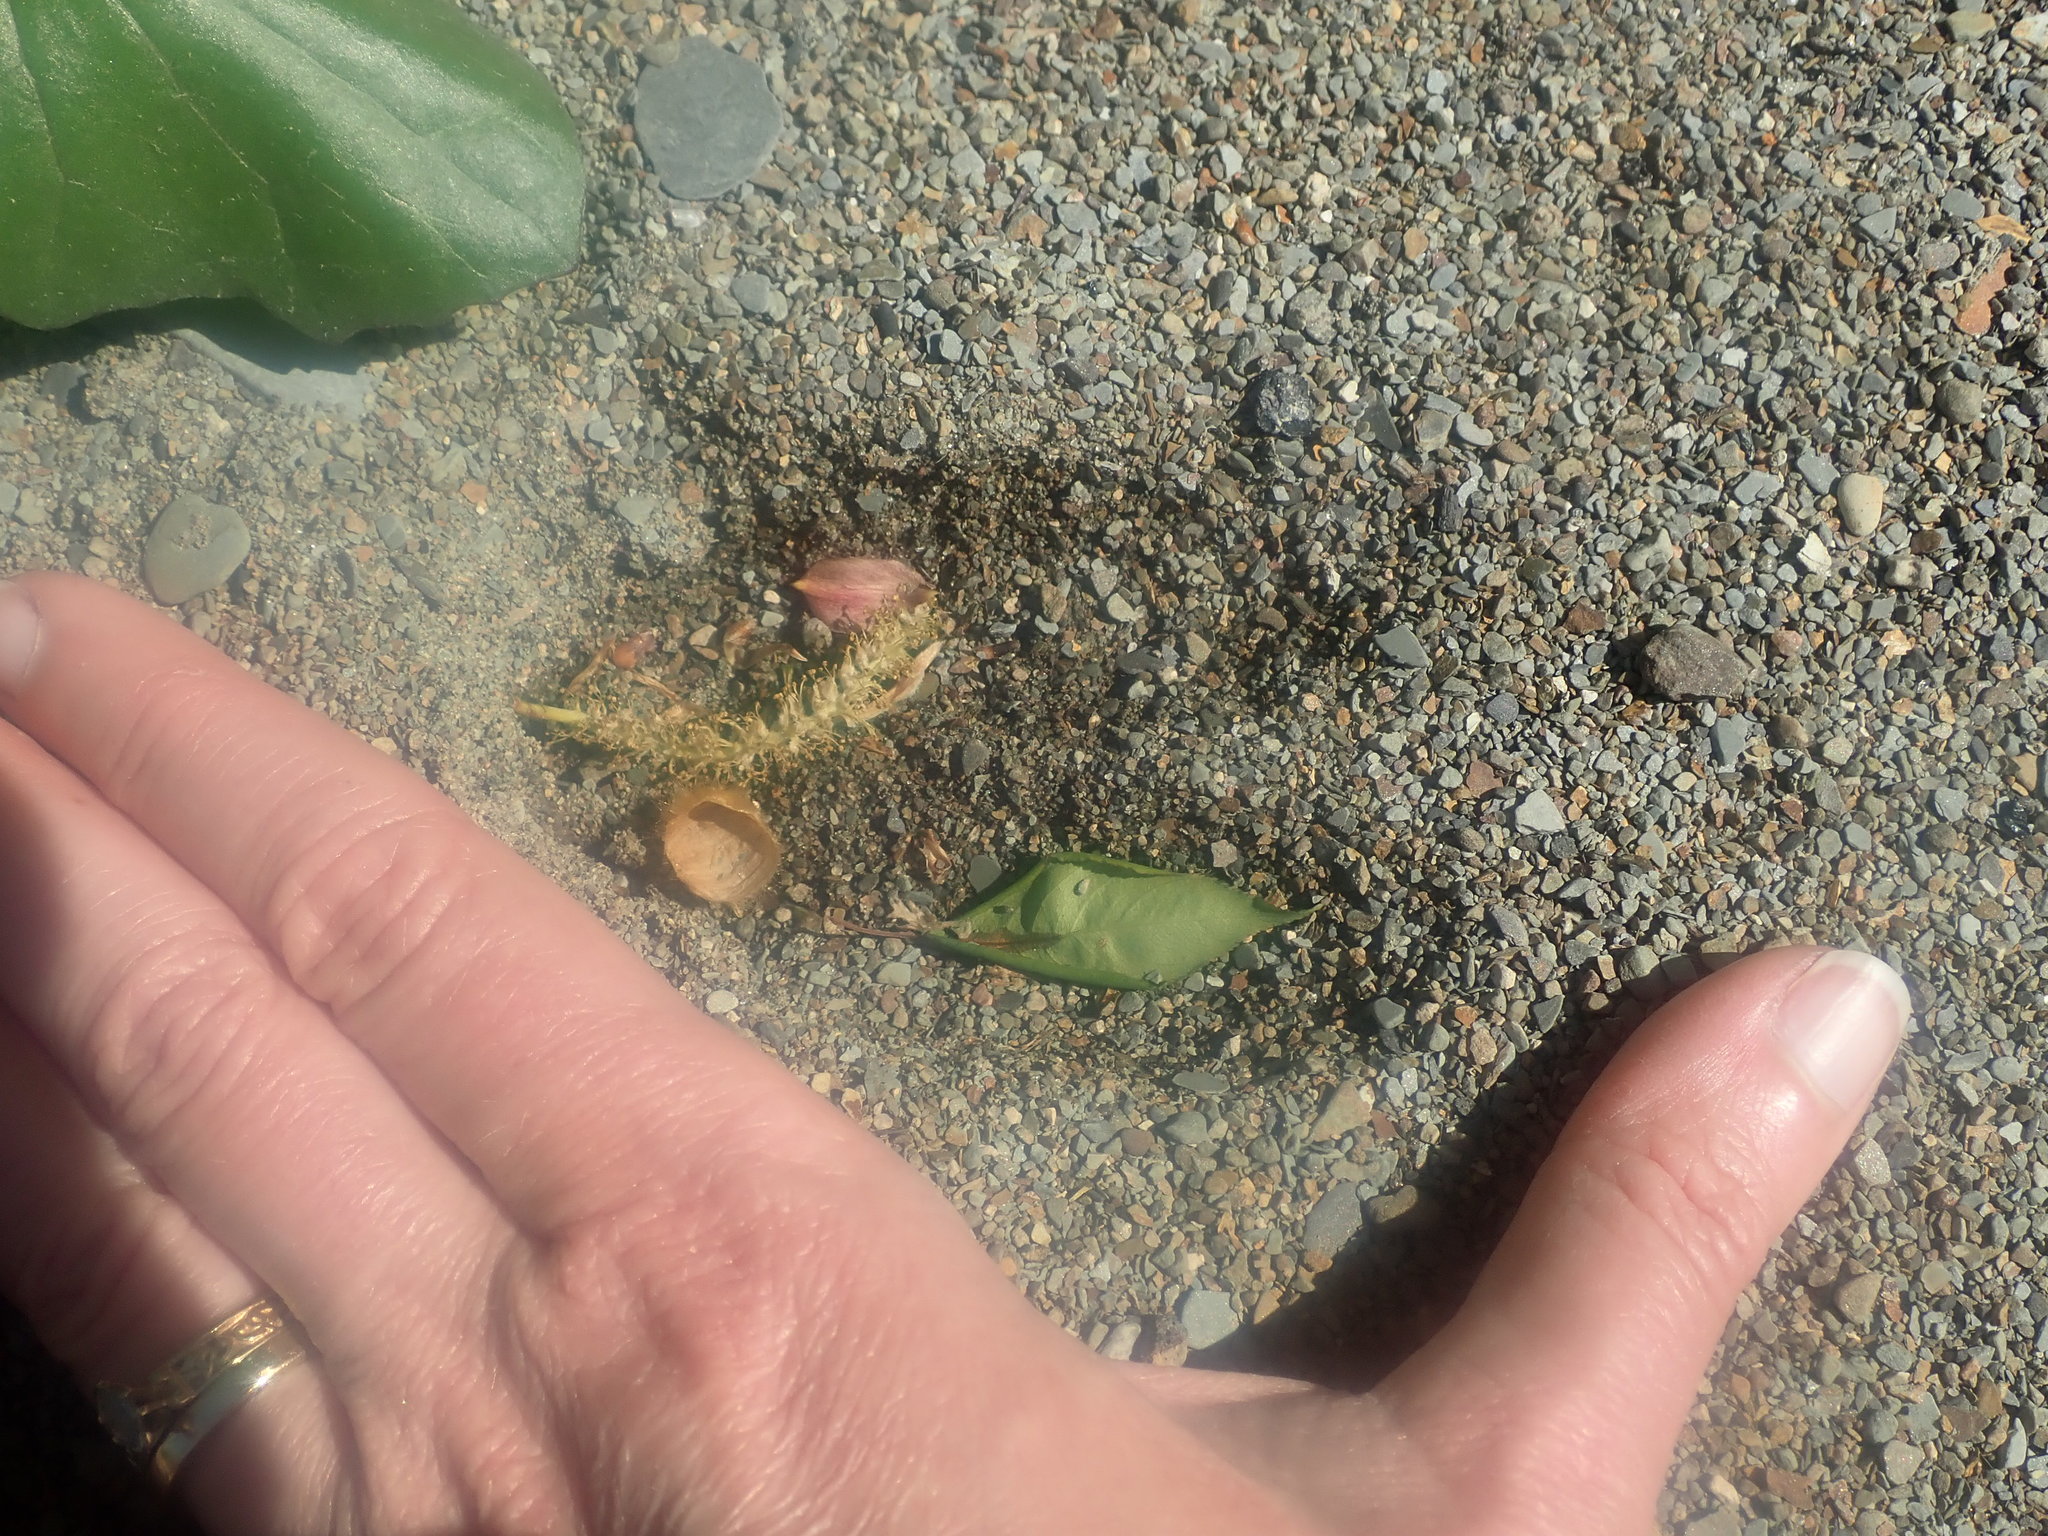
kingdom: Animalia
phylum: Chordata
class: Mammalia
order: Artiodactyla
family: Cervidae
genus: Odocoileus
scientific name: Odocoileus virginianus
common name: White-tailed deer
